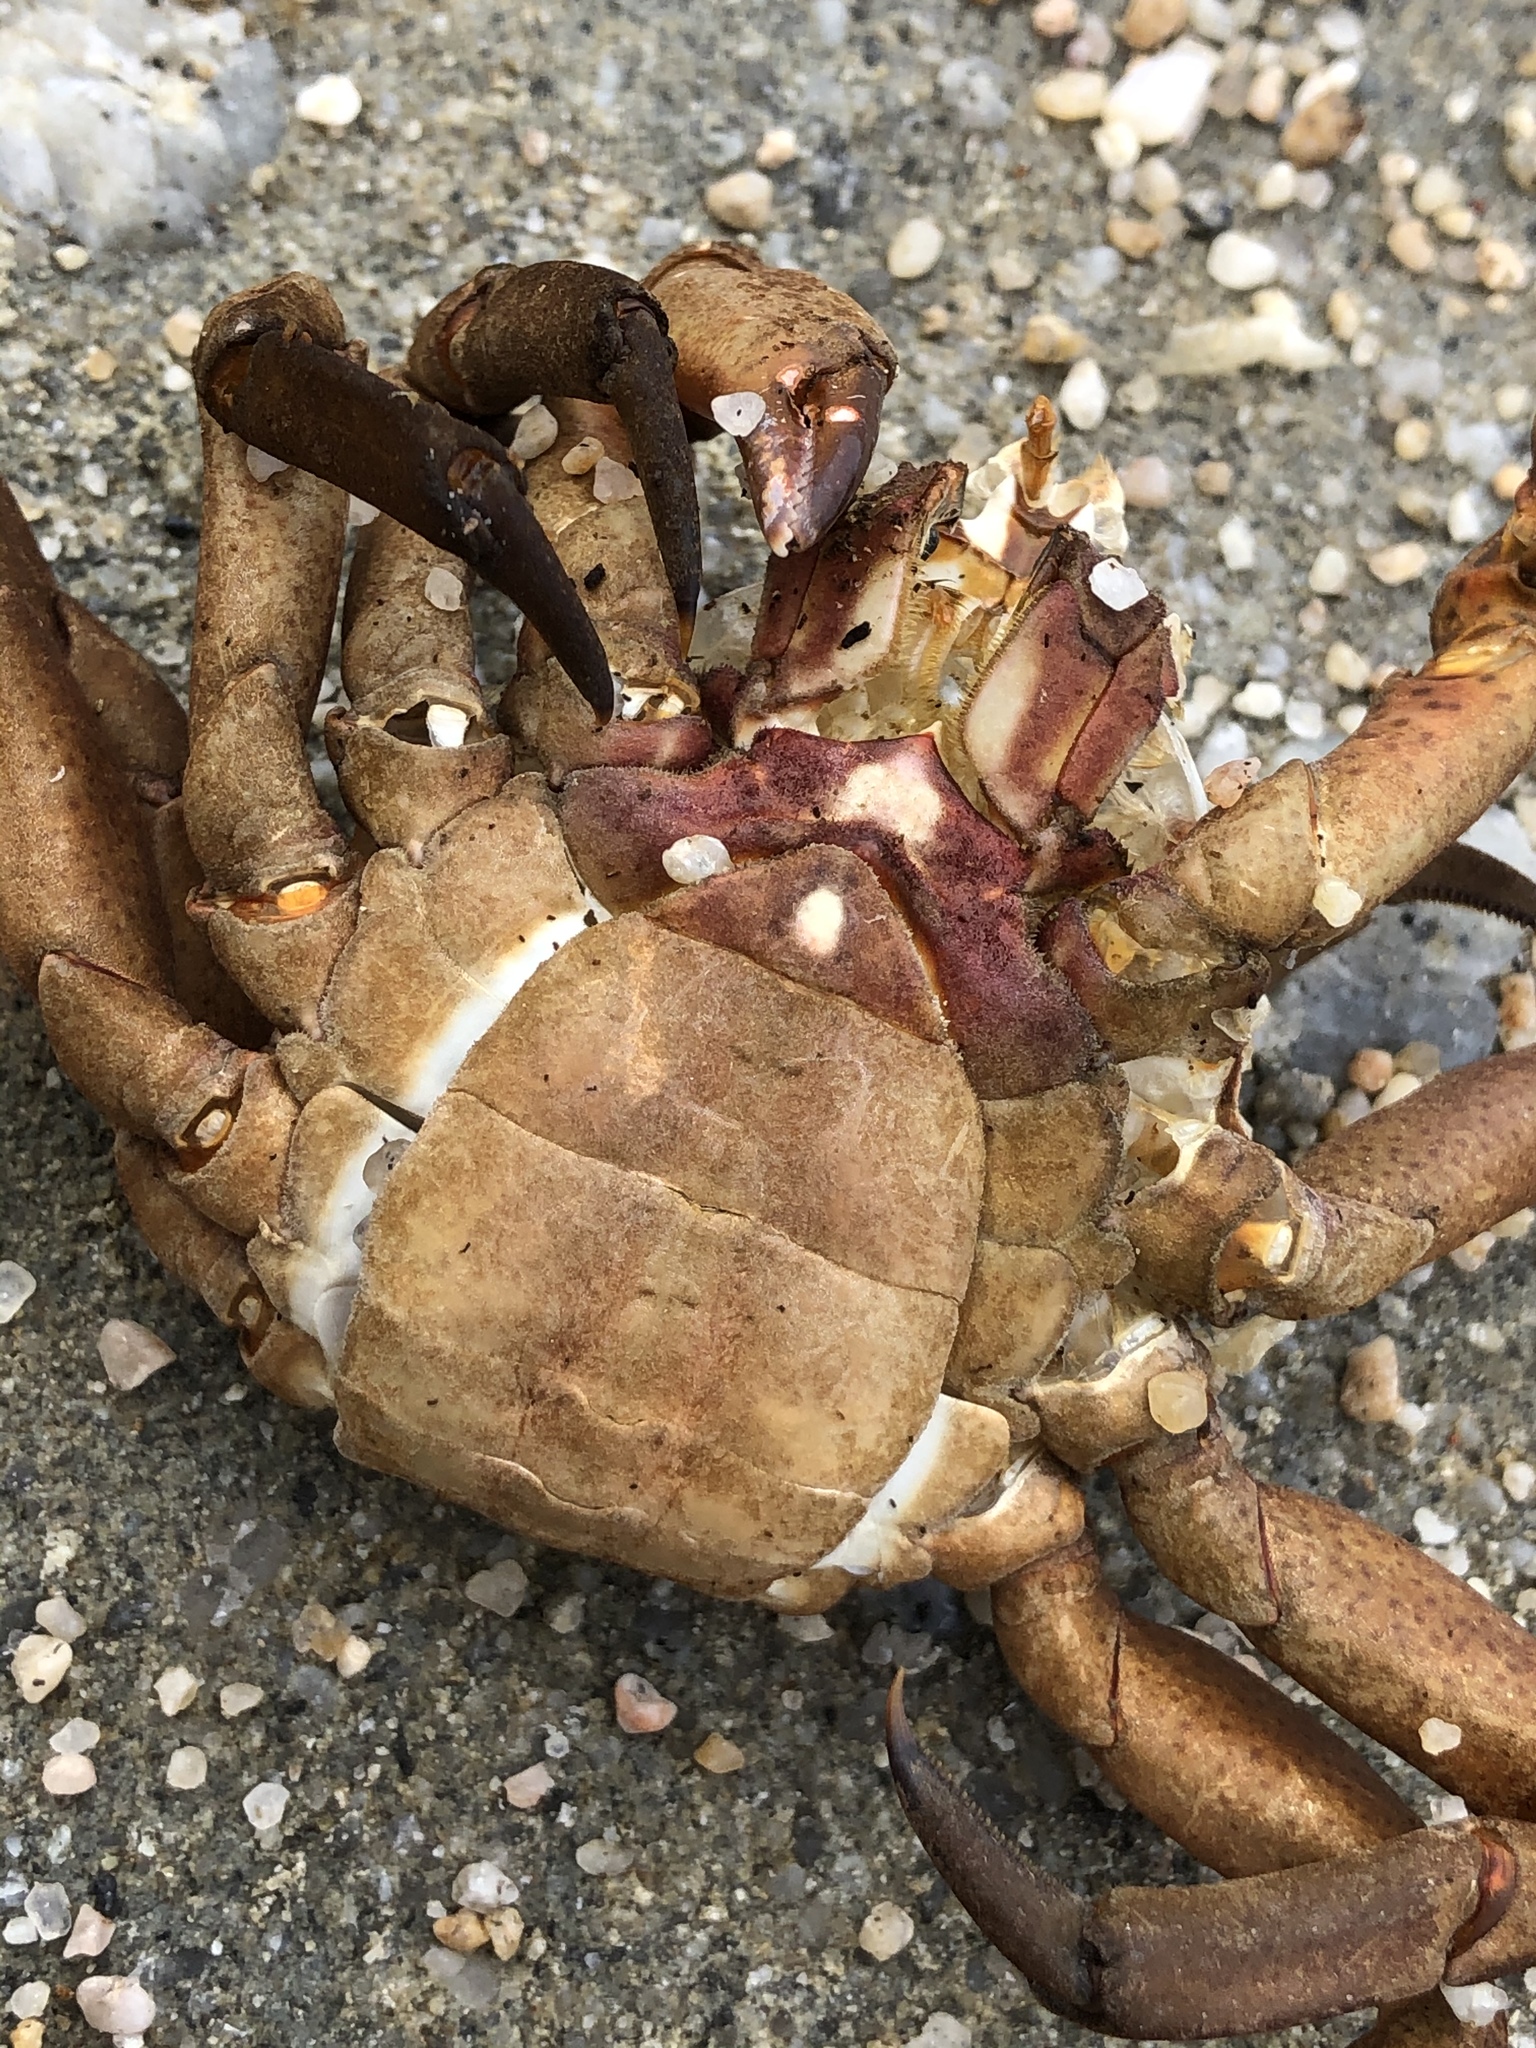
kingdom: Animalia
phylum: Arthropoda
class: Malacostraca
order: Decapoda
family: Epialtidae
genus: Pugettia
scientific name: Pugettia producta
